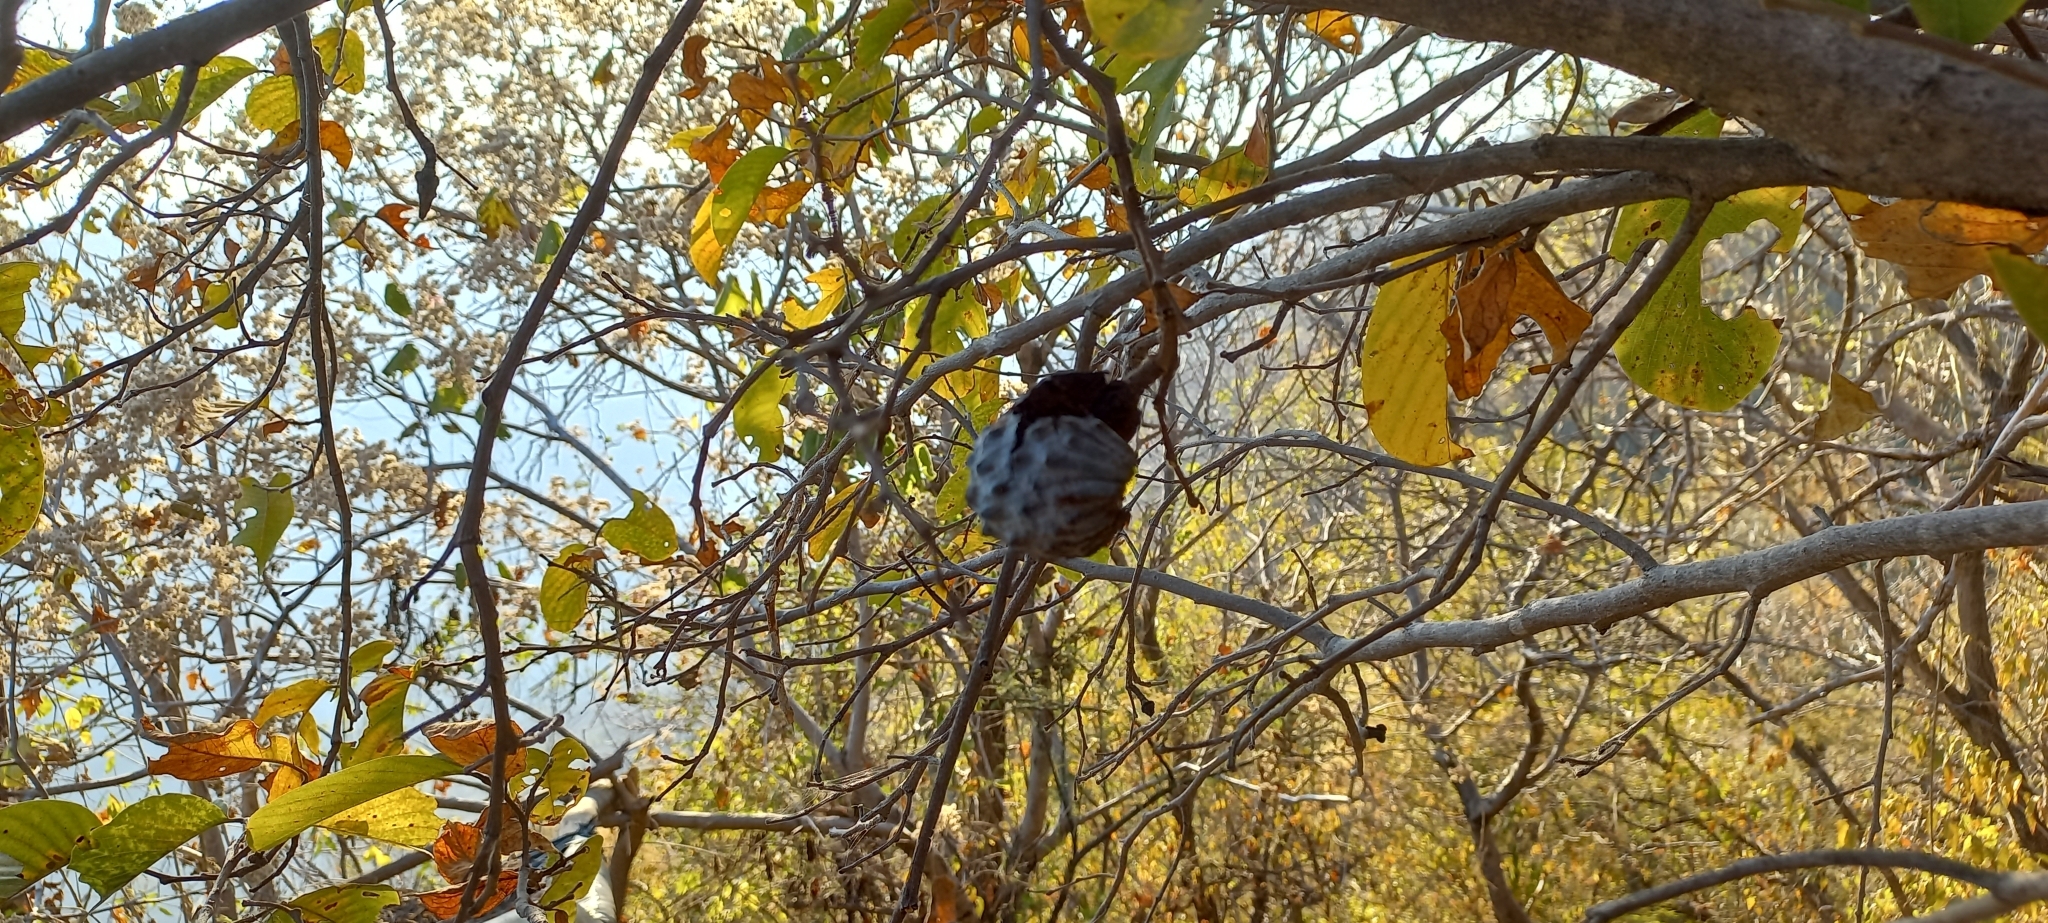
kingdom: Plantae
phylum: Tracheophyta
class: Magnoliopsida
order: Magnoliales
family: Annonaceae
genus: Annona
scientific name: Annona longiflora
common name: Wild cherimoya of jalisco
